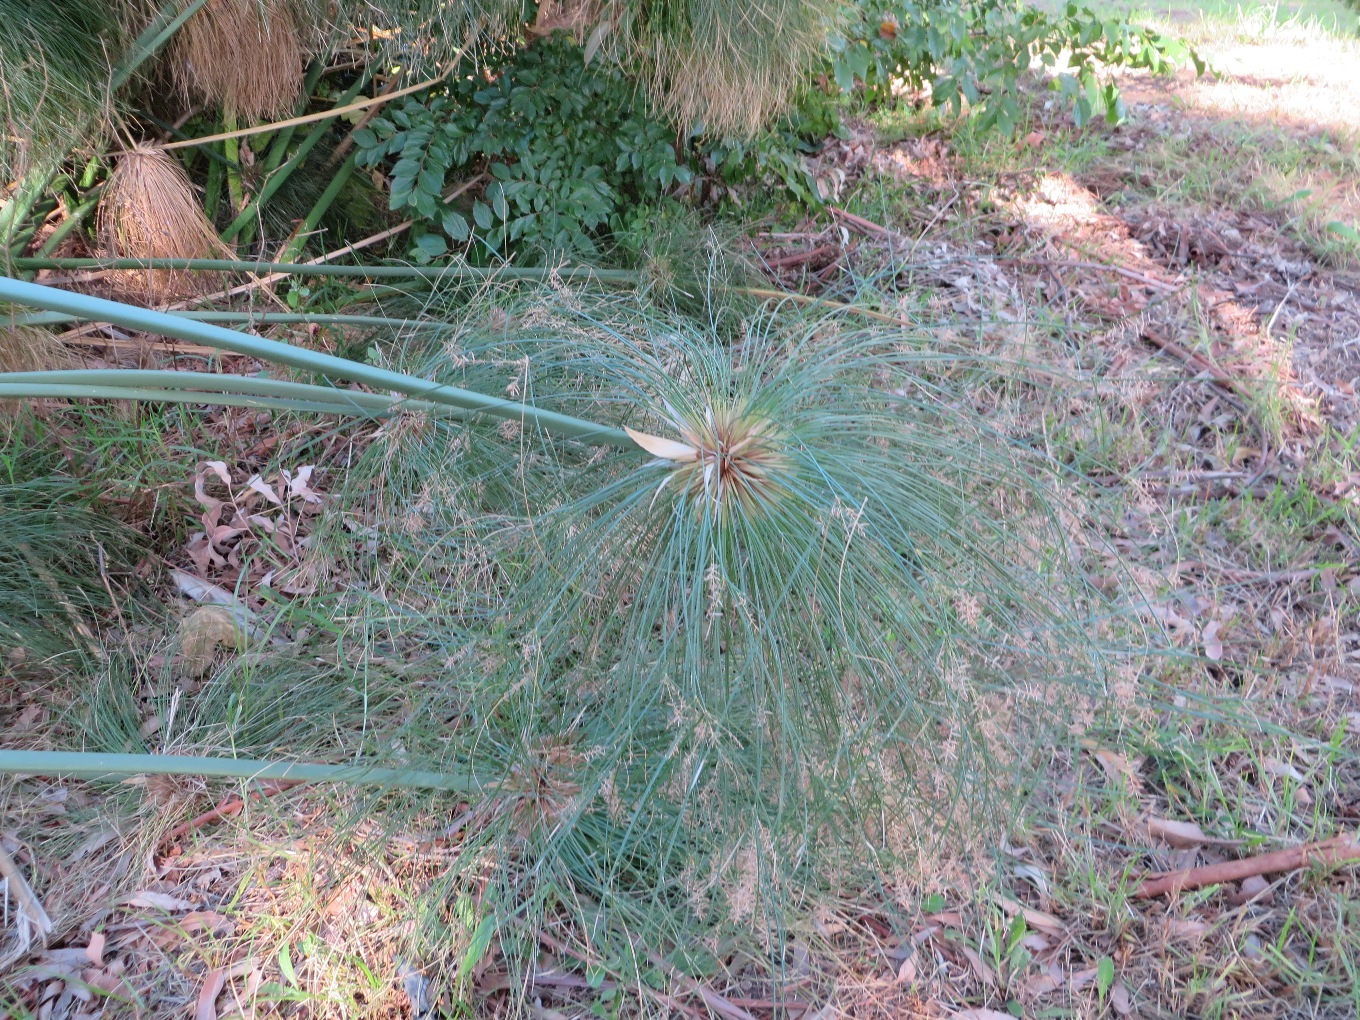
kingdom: Plantae
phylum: Tracheophyta
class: Liliopsida
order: Poales
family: Cyperaceae
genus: Cyperus
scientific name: Cyperus papyrus
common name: Papyrus
